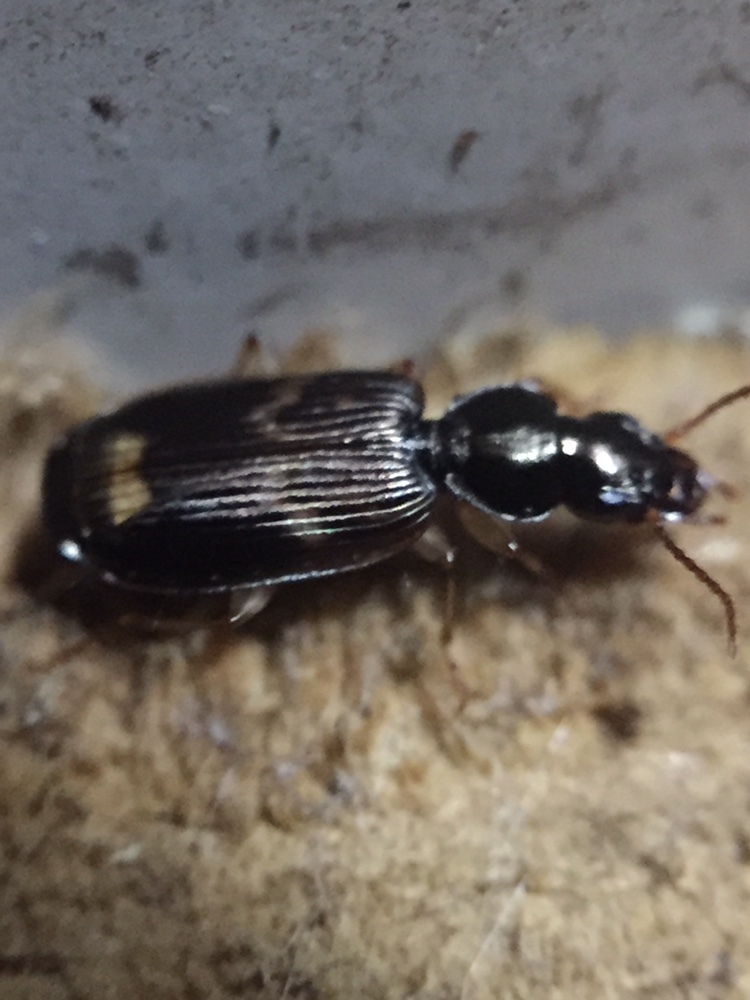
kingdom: Animalia
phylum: Arthropoda
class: Insecta
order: Coleoptera
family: Carabidae
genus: Anomotarus
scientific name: Anomotarus variegatus
